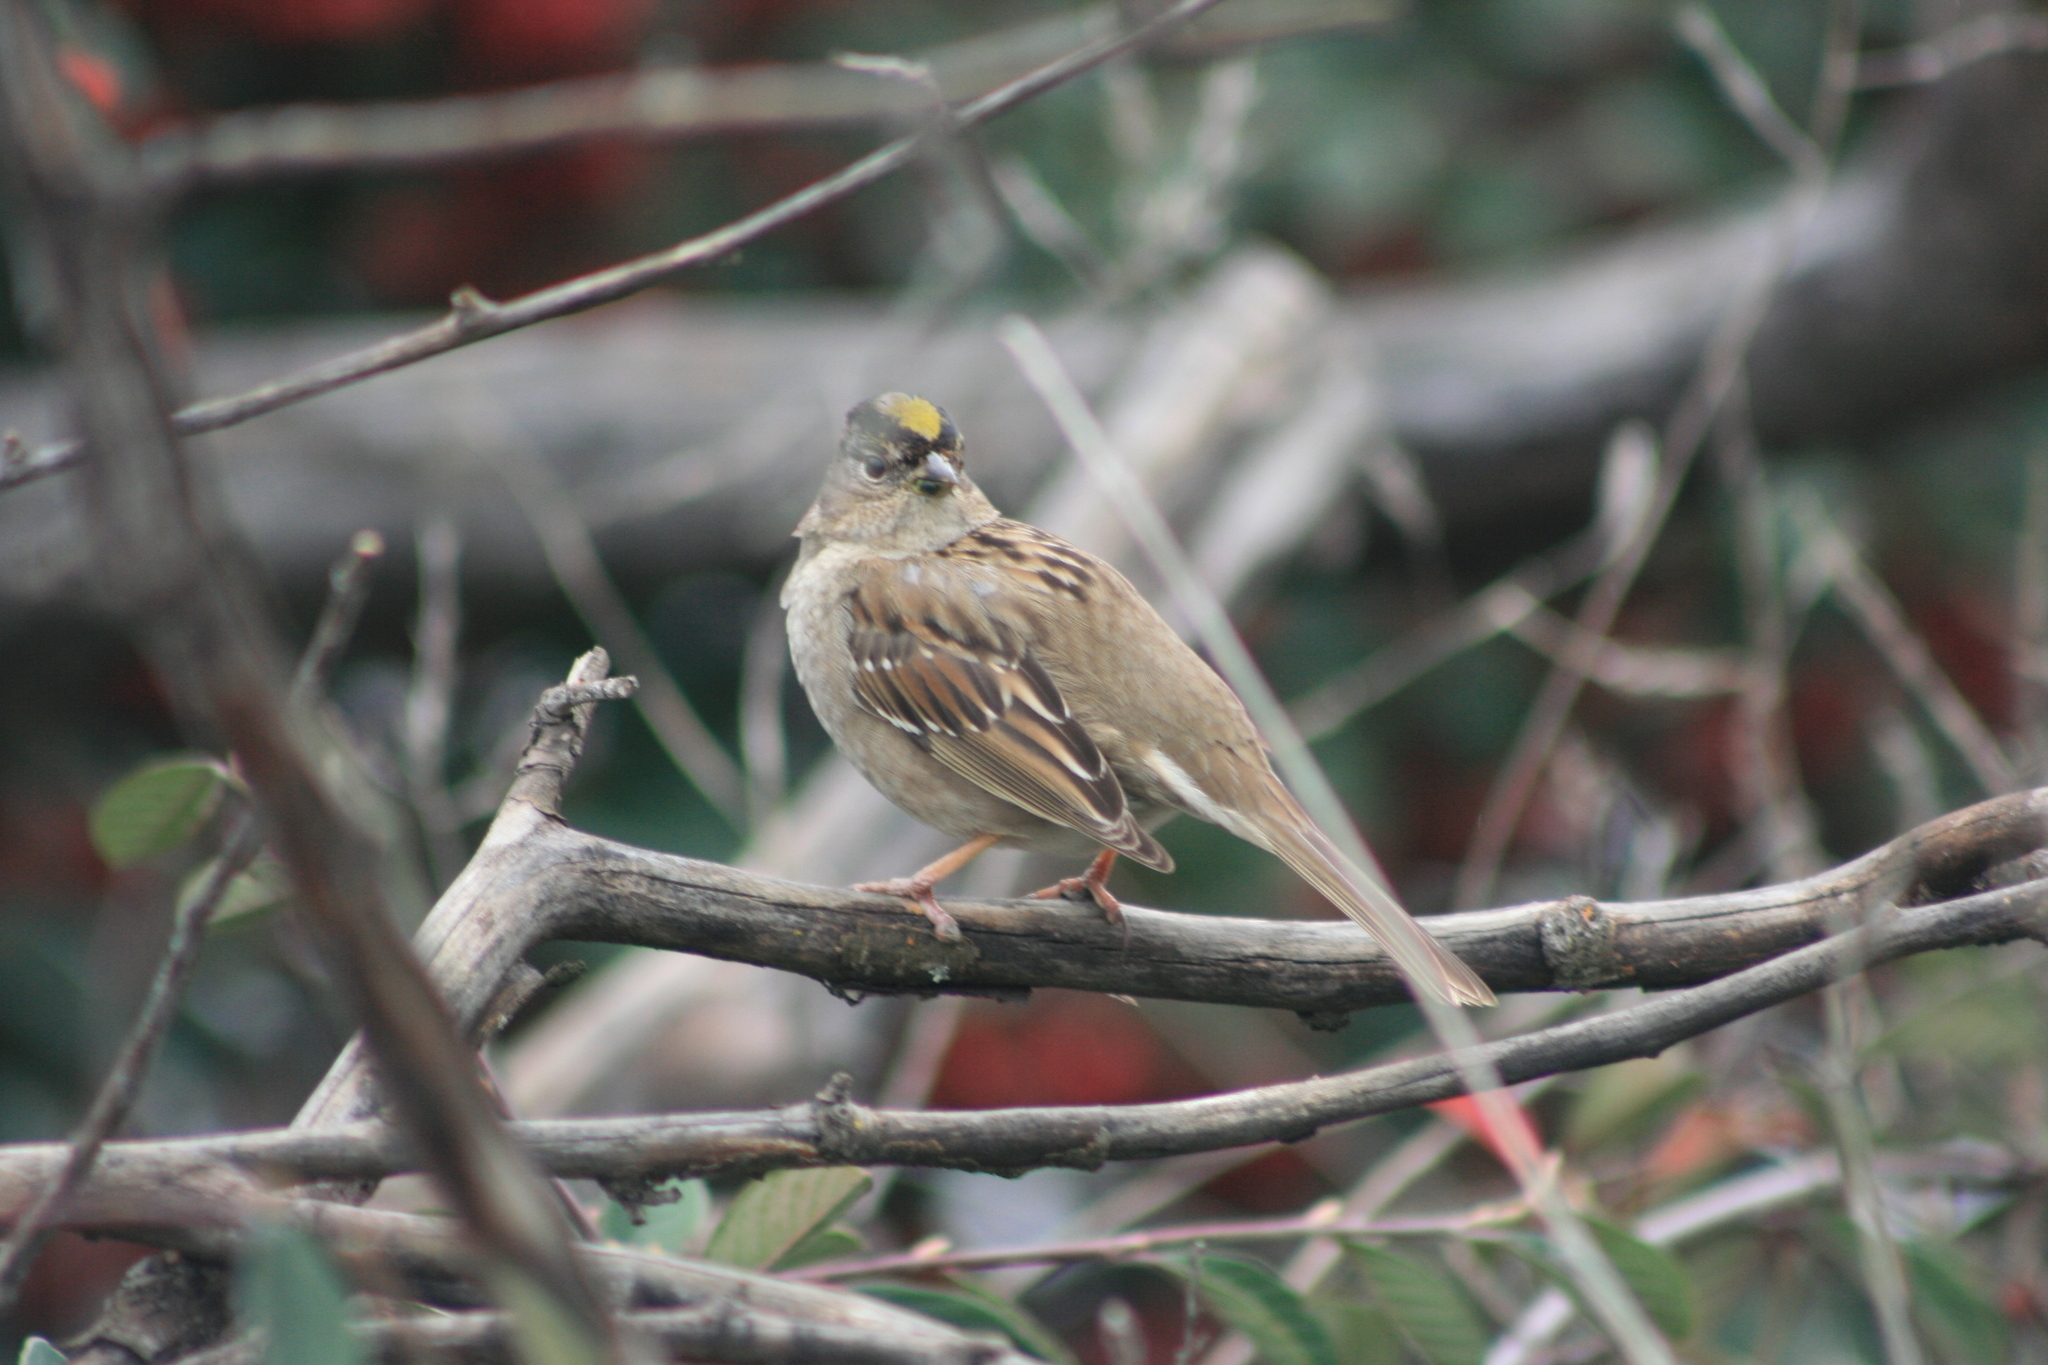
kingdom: Animalia
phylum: Chordata
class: Aves
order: Passeriformes
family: Passerellidae
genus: Zonotrichia
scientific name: Zonotrichia atricapilla
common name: Golden-crowned sparrow
